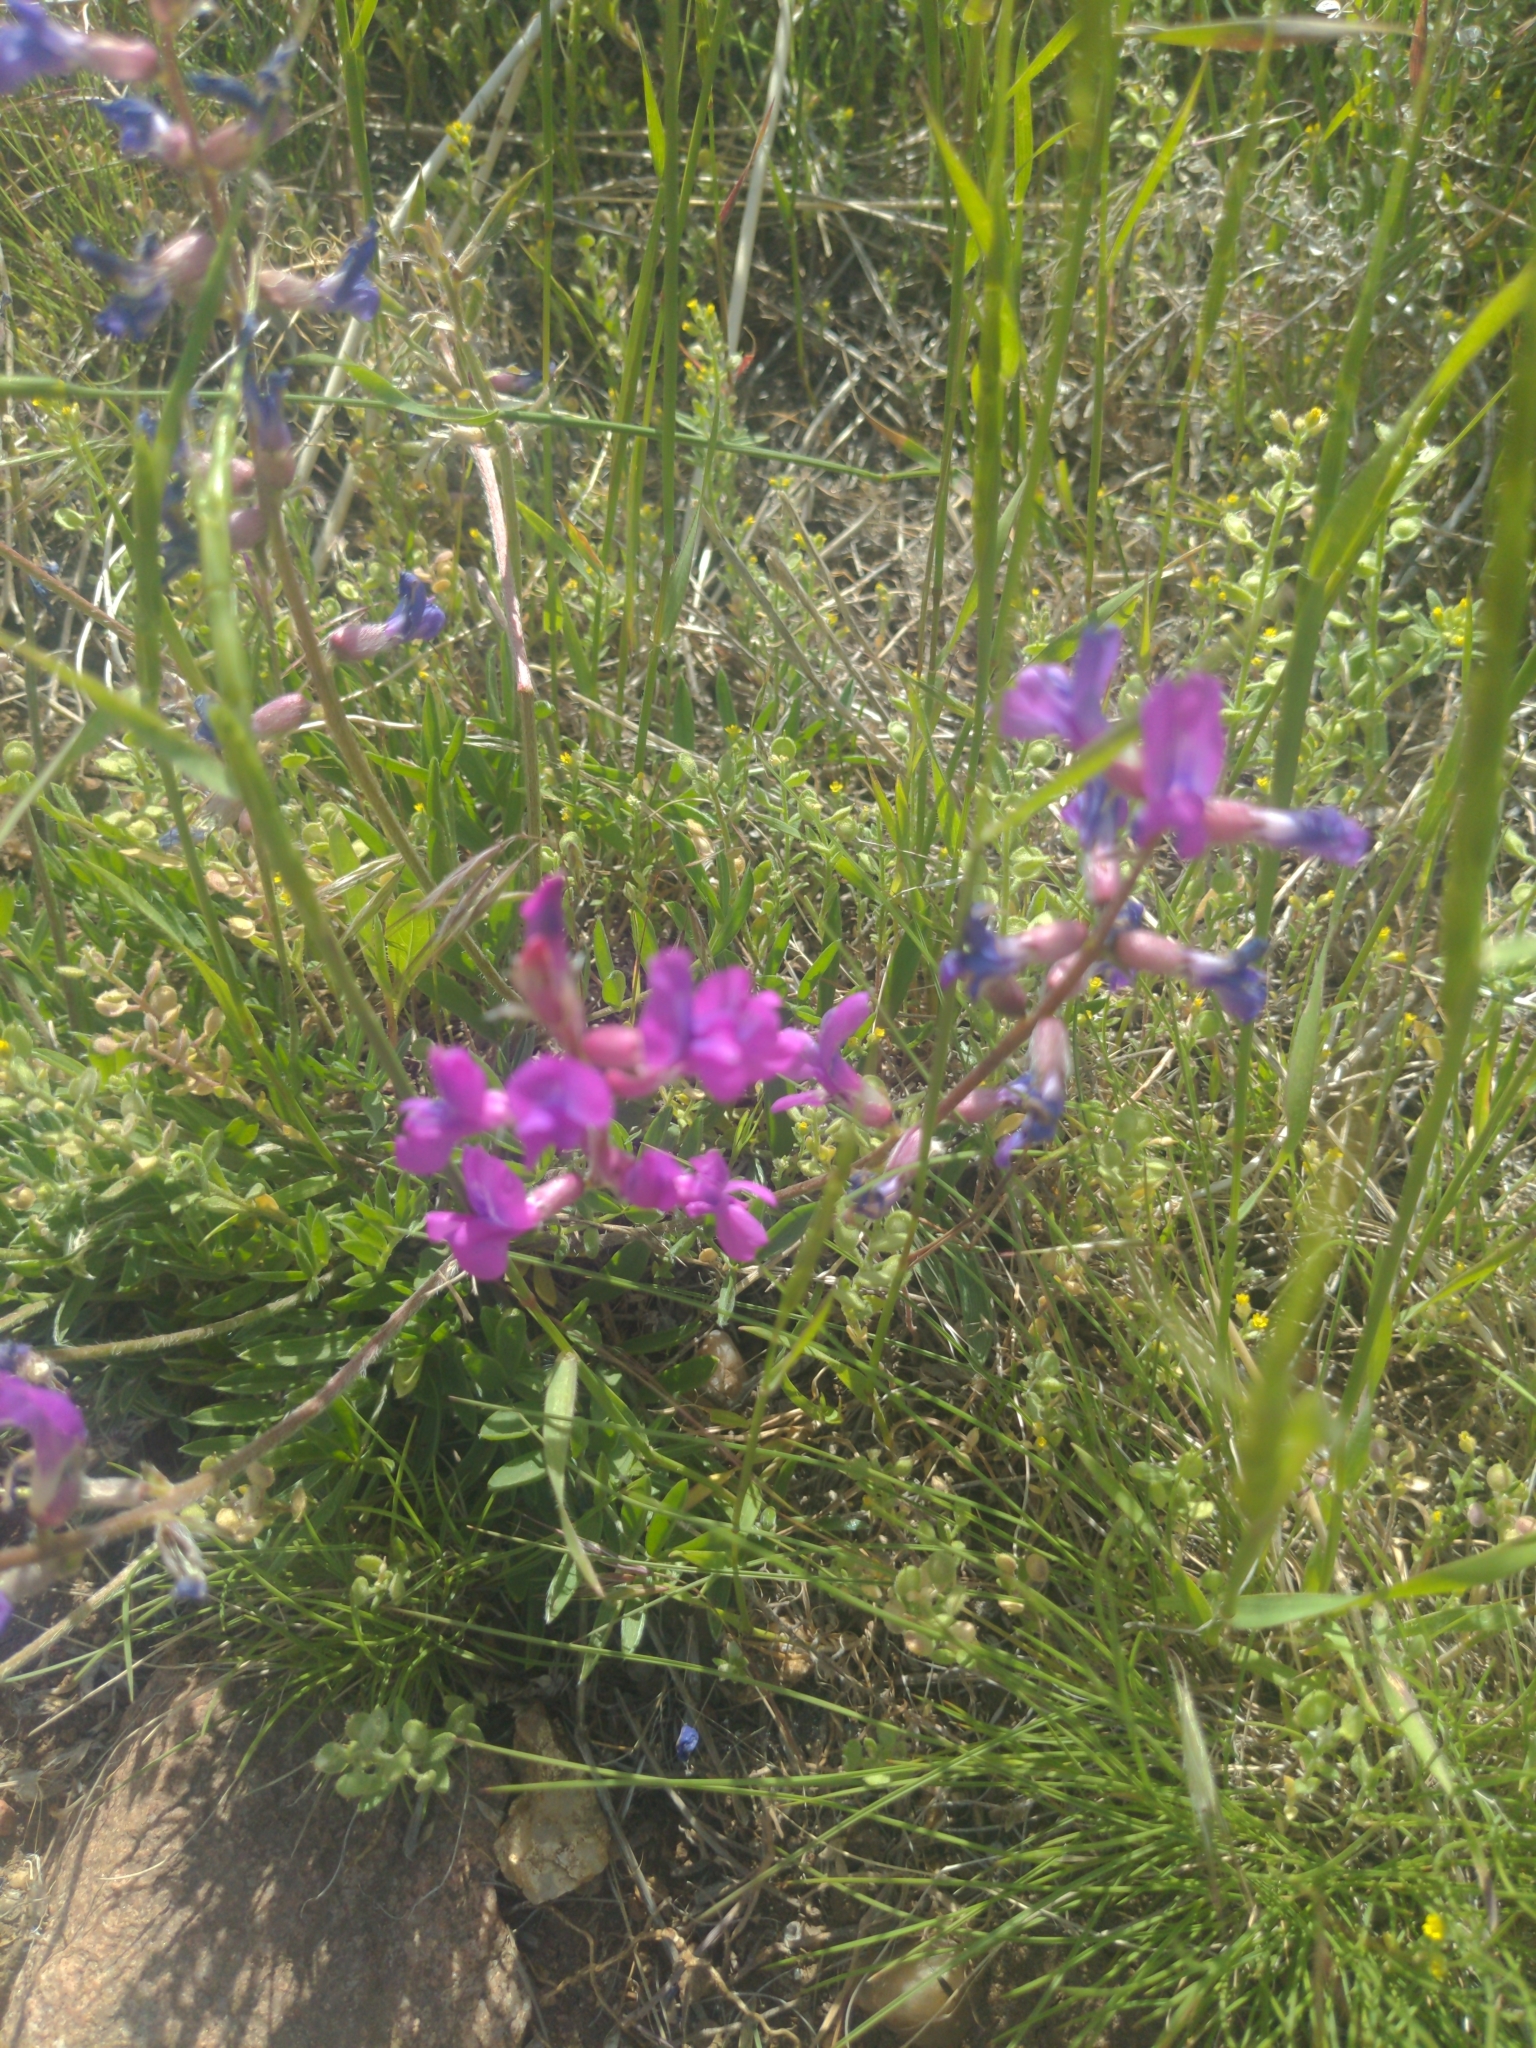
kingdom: Plantae
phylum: Tracheophyta
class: Magnoliopsida
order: Fabales
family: Fabaceae
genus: Oxytropis
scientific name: Oxytropis lambertii
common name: Purple locoweed
